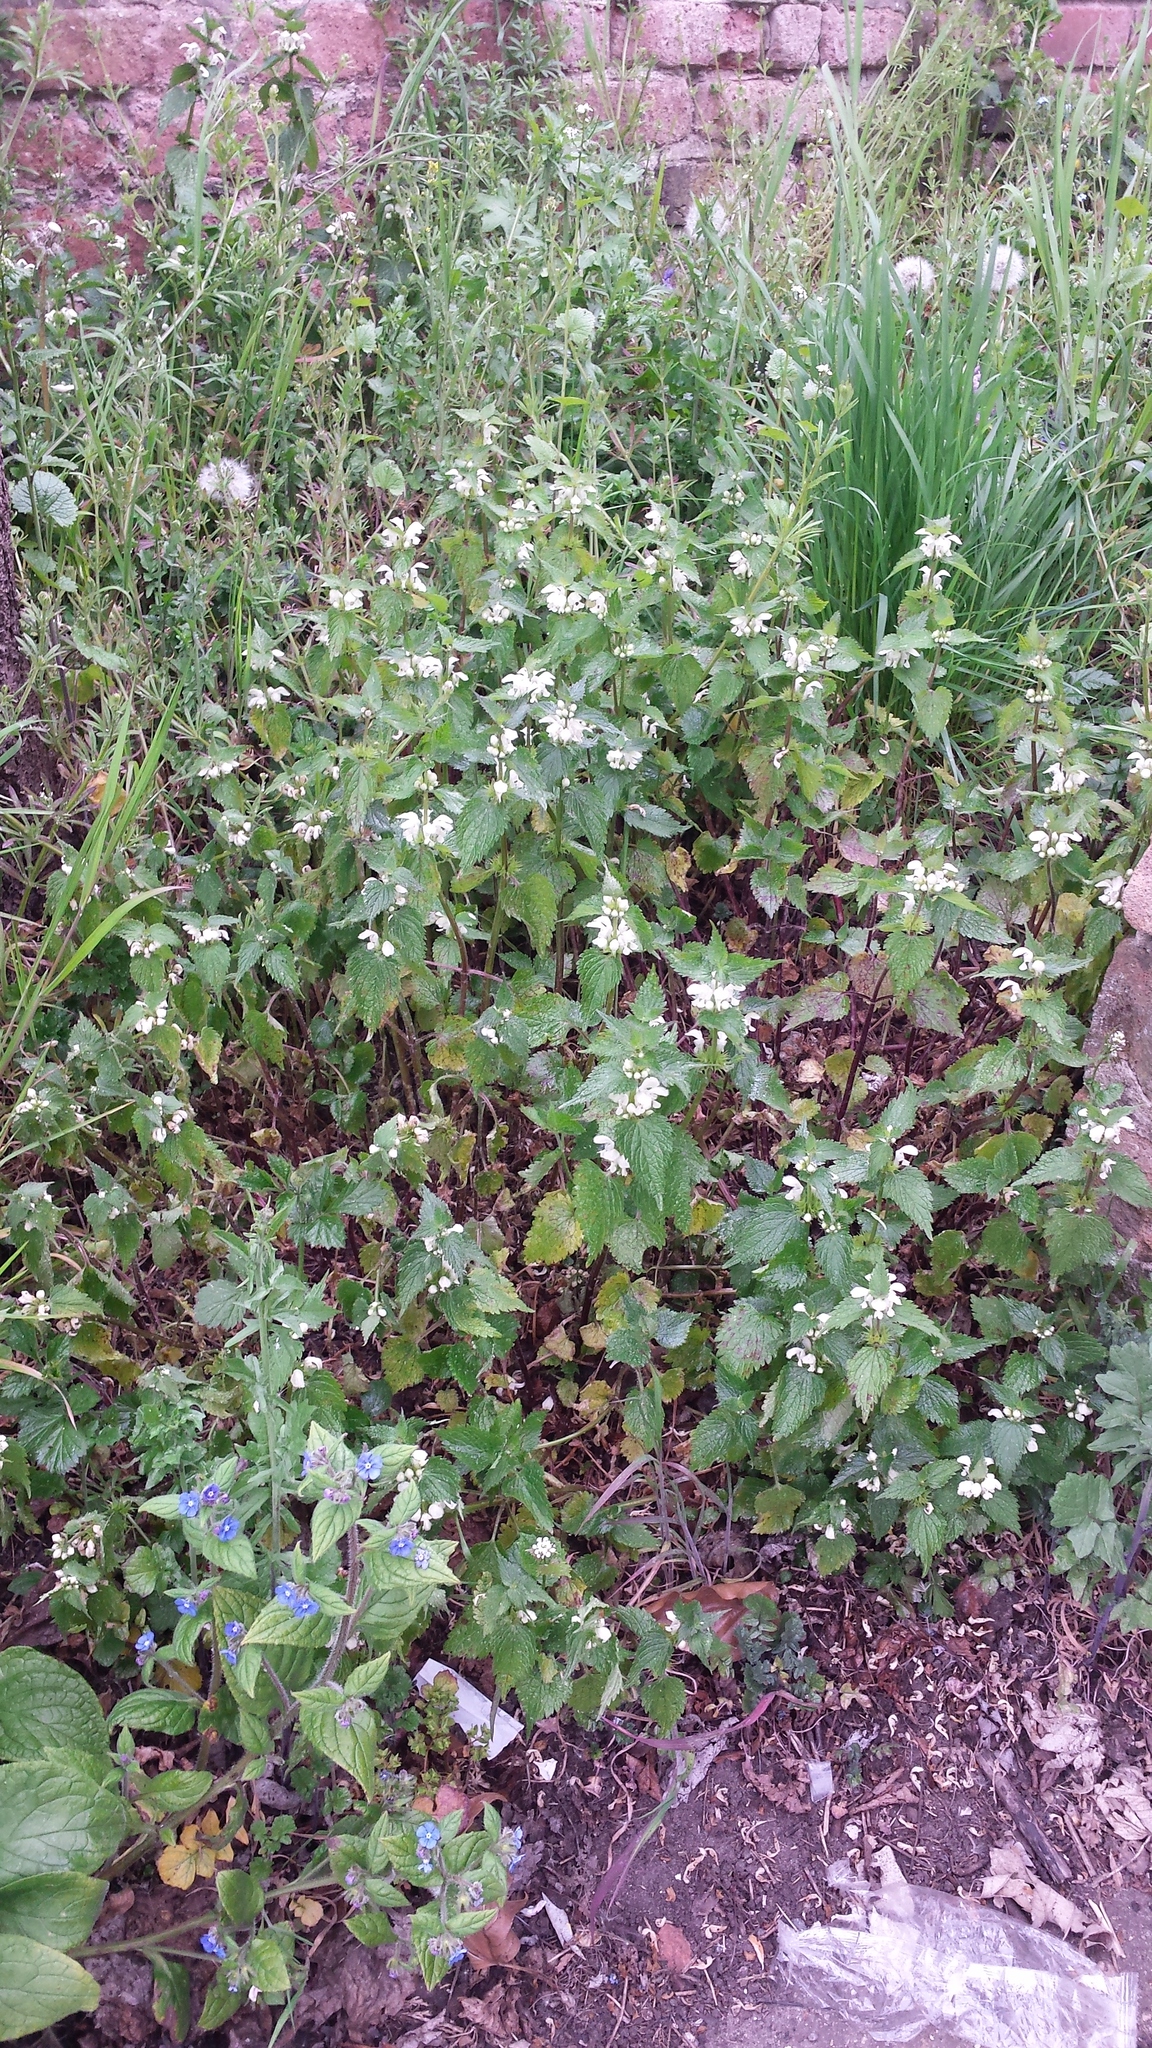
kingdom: Plantae
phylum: Tracheophyta
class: Magnoliopsida
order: Lamiales
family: Lamiaceae
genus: Lamium
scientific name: Lamium album
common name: White dead-nettle
